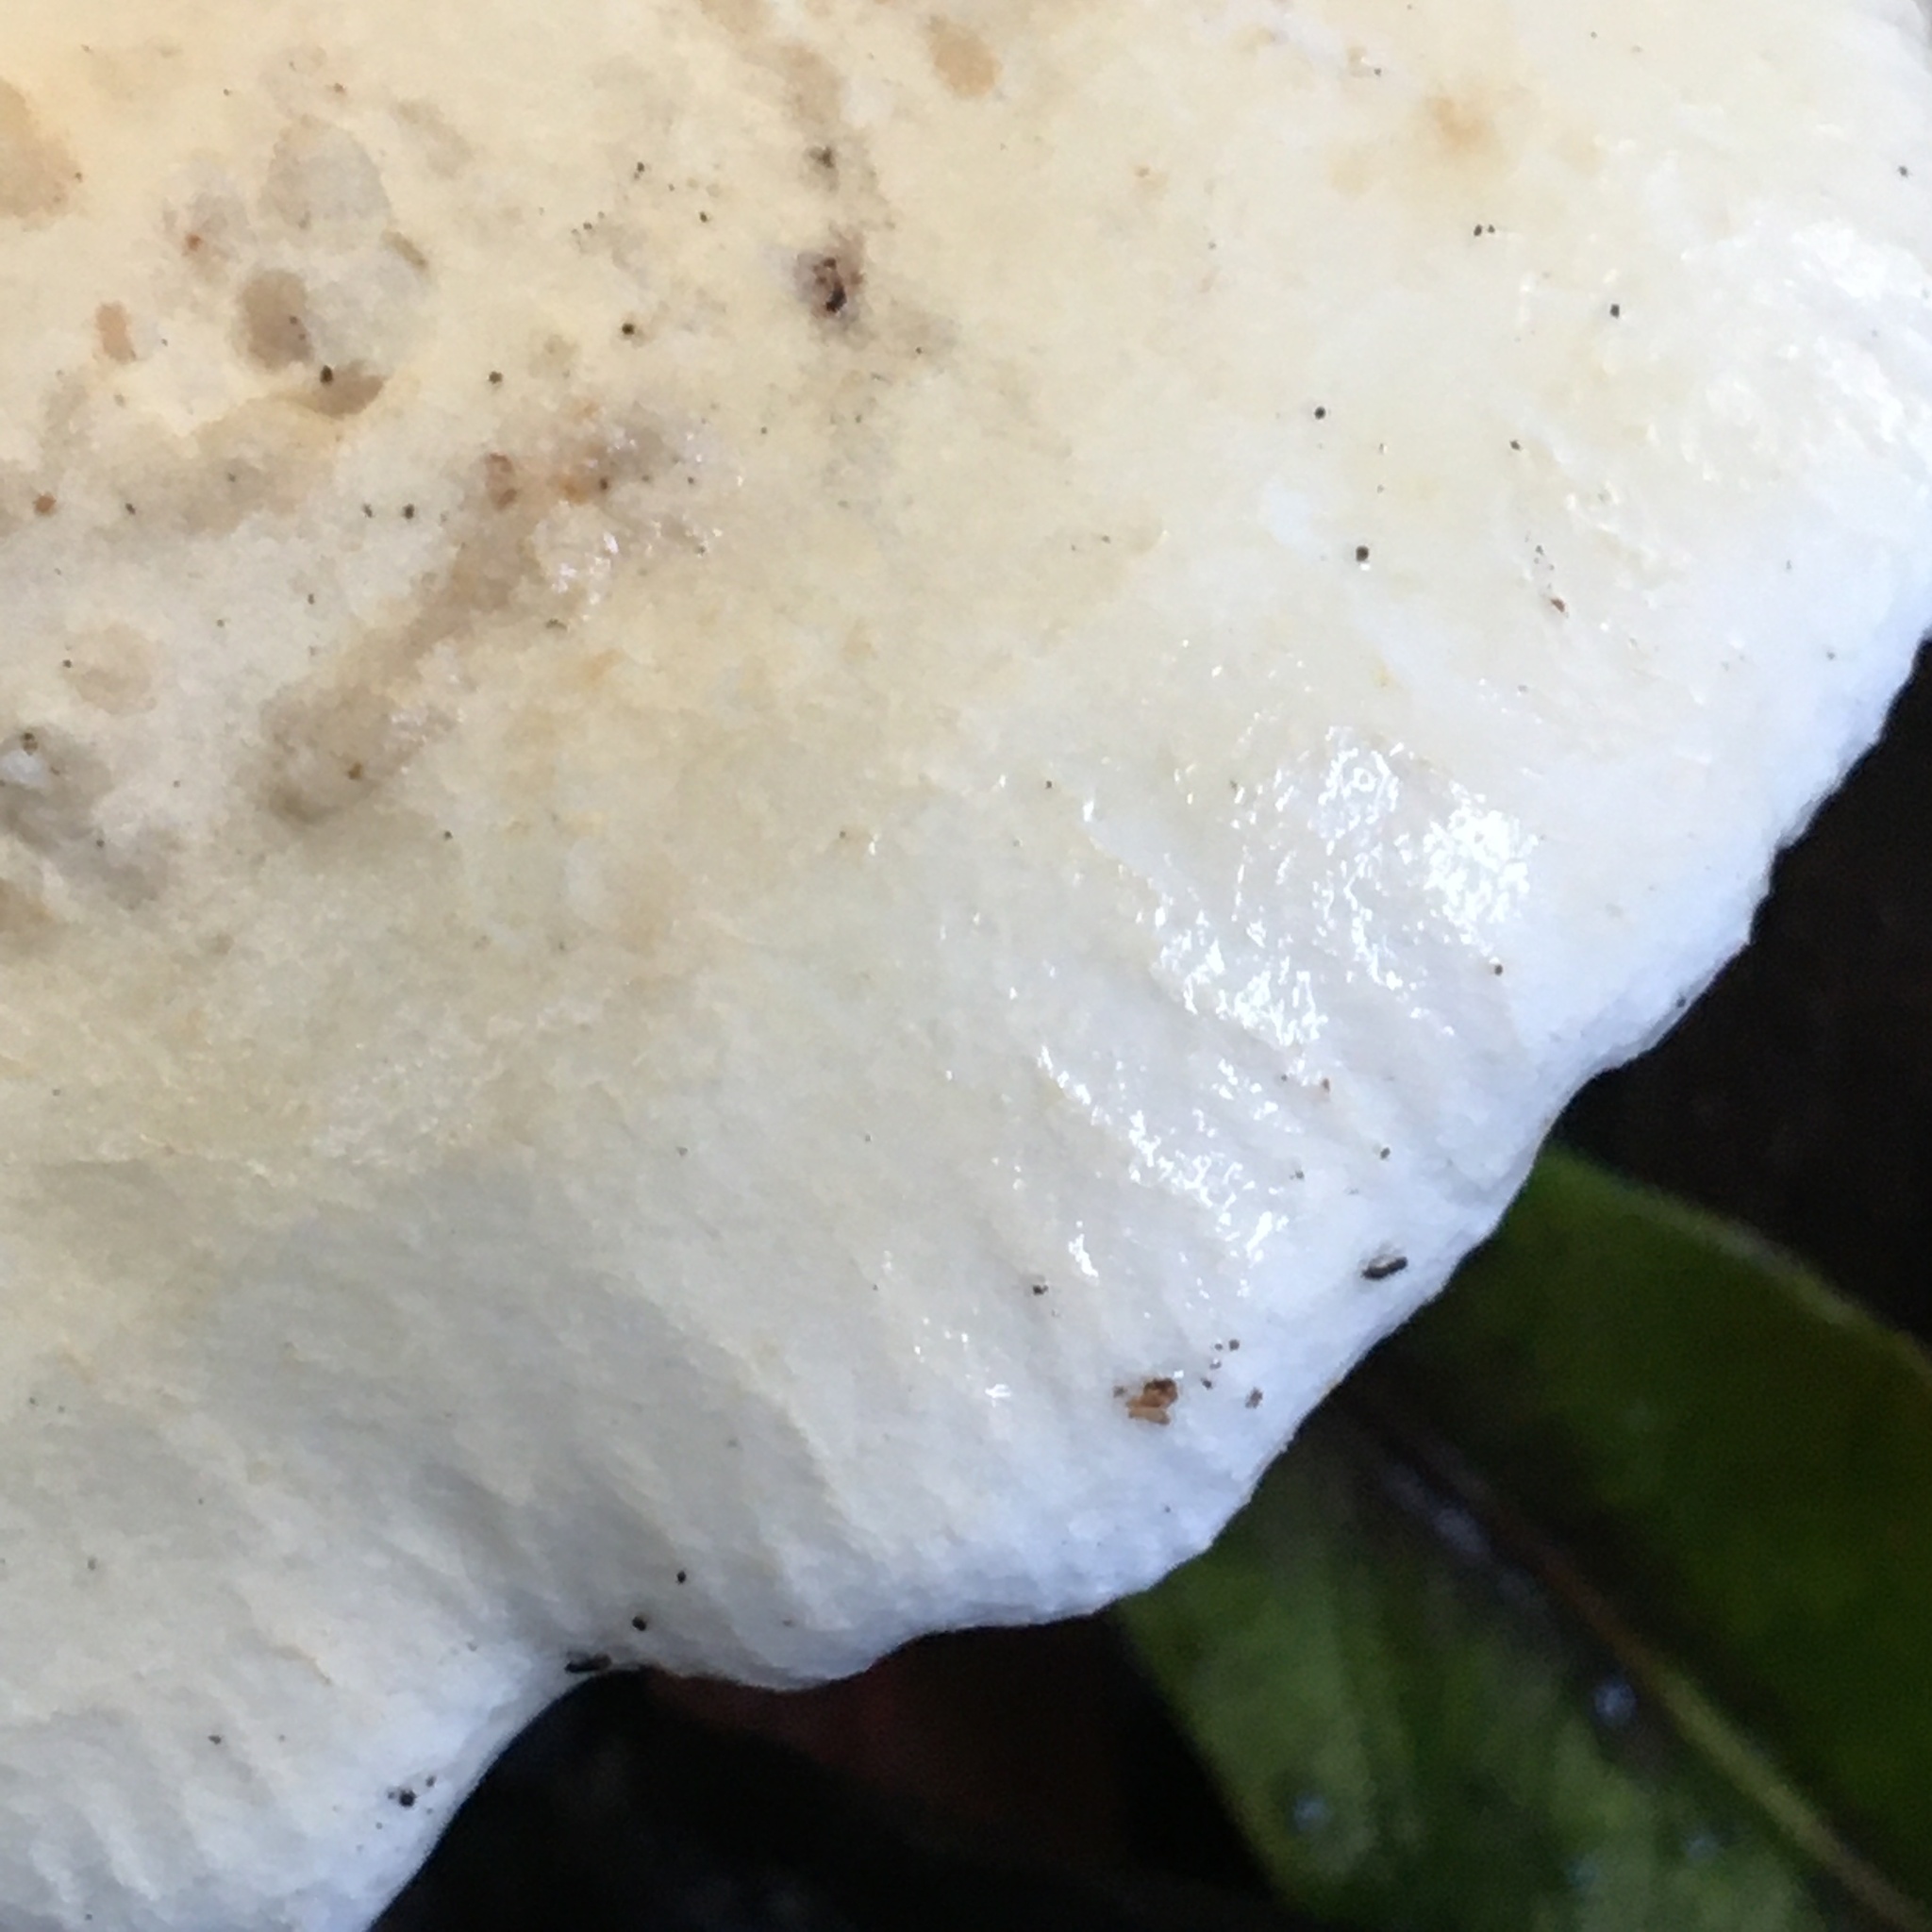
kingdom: Fungi
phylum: Basidiomycota
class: Agaricomycetes
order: Agaricales
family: Tricholomataceae
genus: Leucopaxillus
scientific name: Leucopaxillus cerealis
